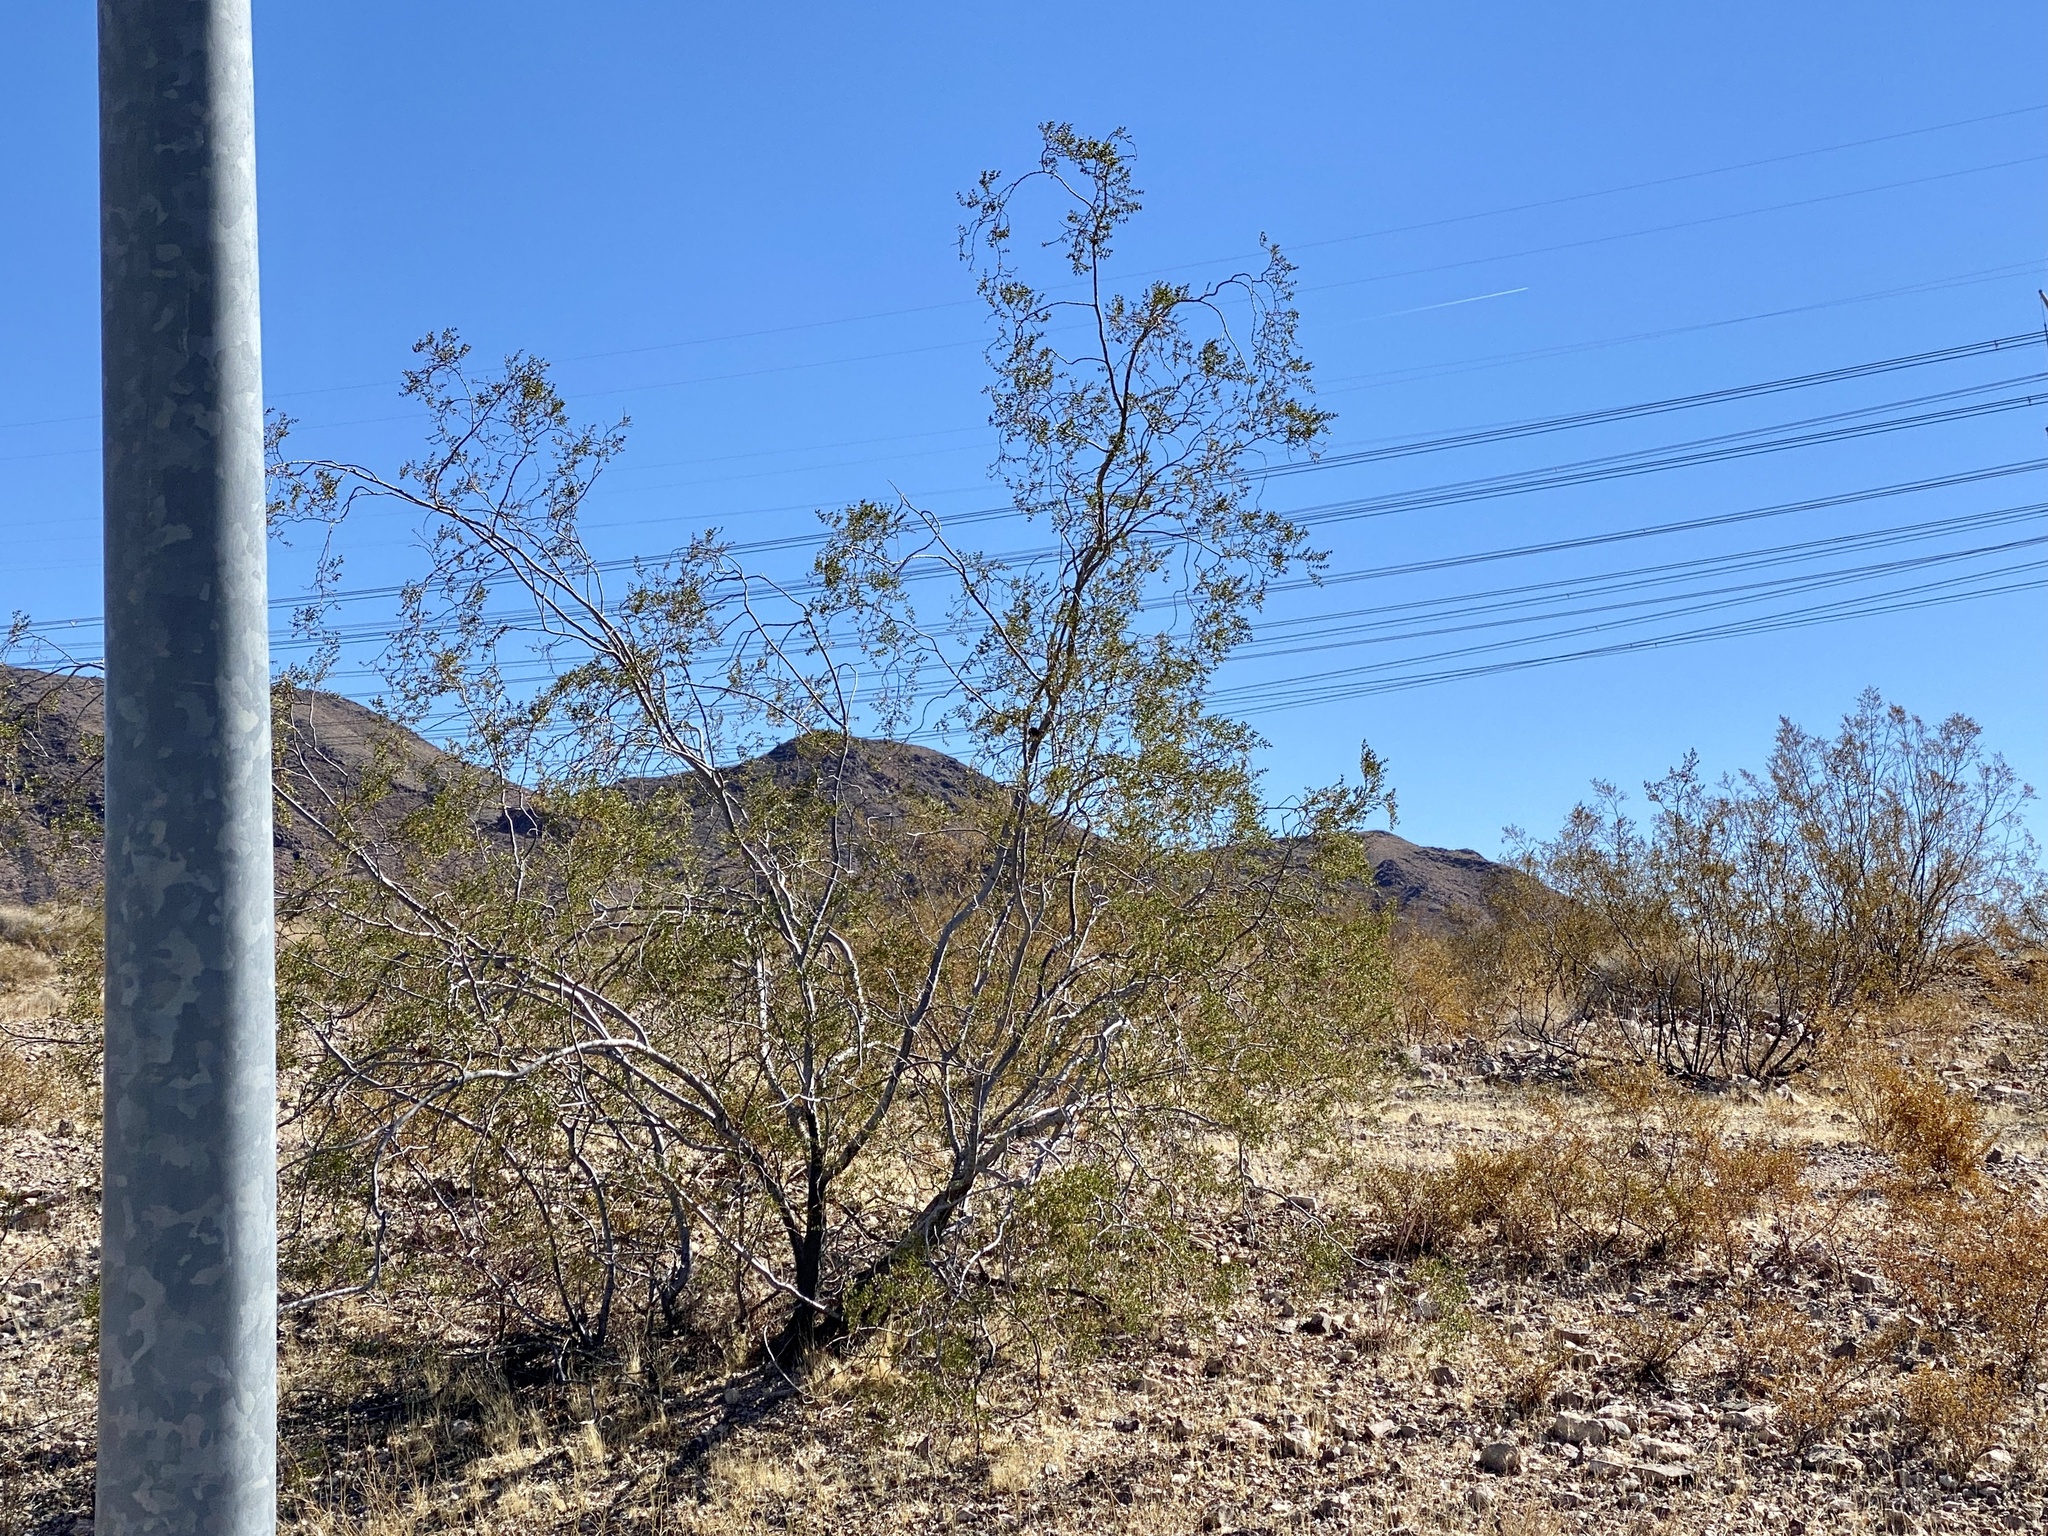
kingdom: Plantae
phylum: Tracheophyta
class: Magnoliopsida
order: Zygophyllales
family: Zygophyllaceae
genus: Larrea
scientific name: Larrea tridentata
